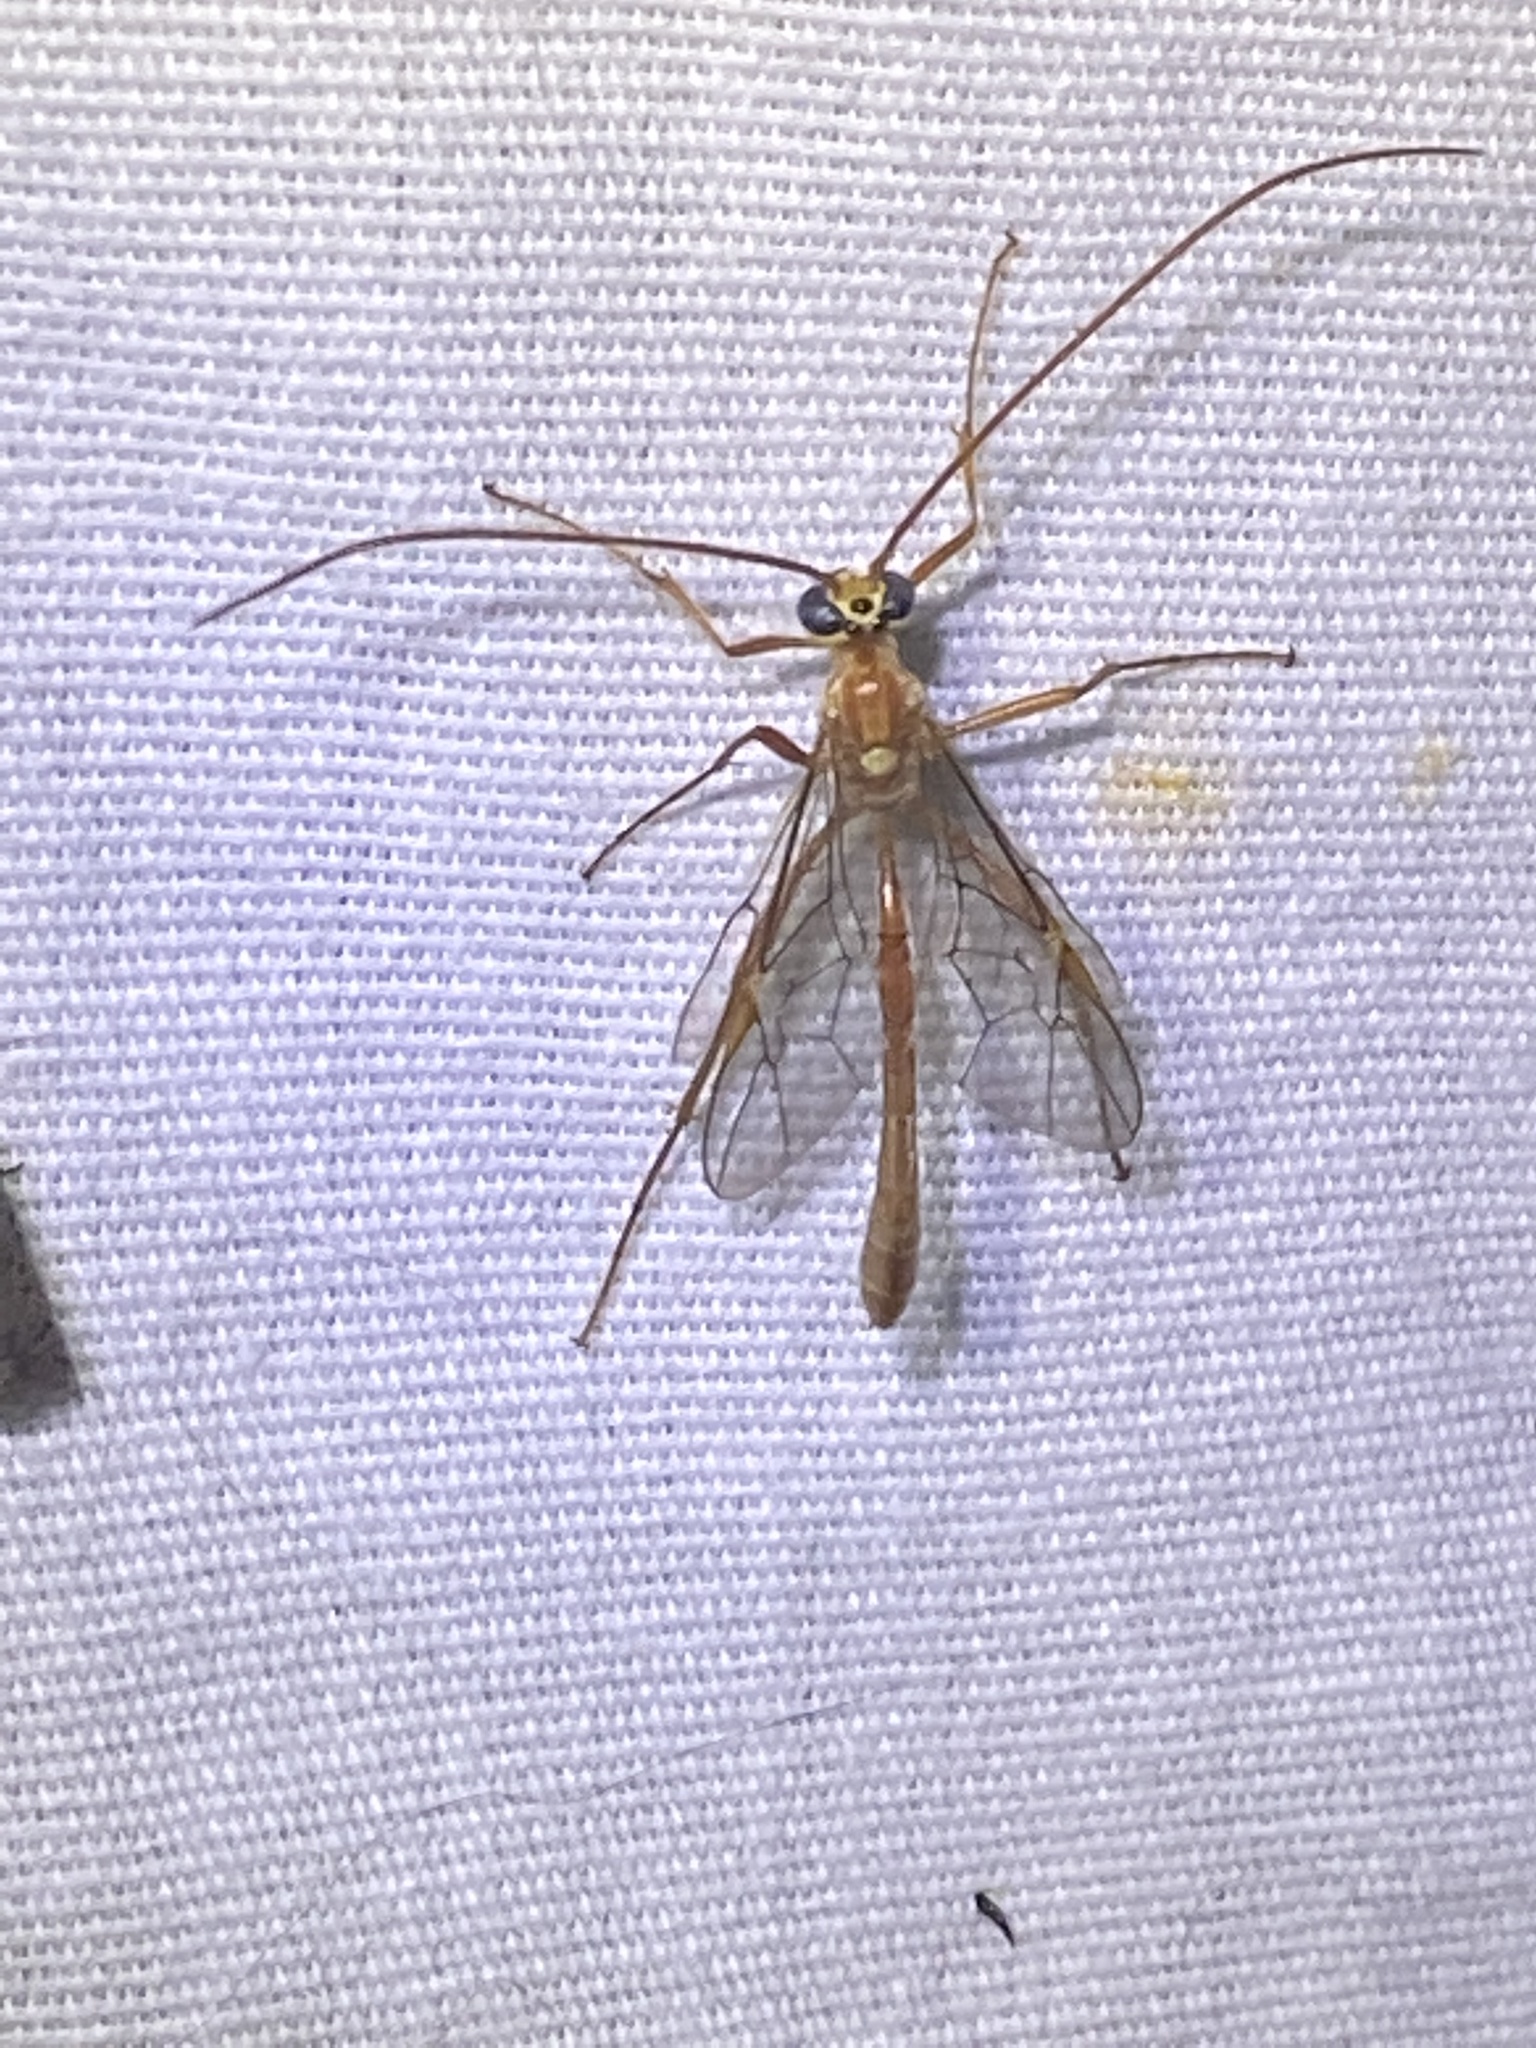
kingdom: Animalia
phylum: Arthropoda
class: Insecta
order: Hymenoptera
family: Ichneumonidae
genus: Ophion
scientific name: Ophion
